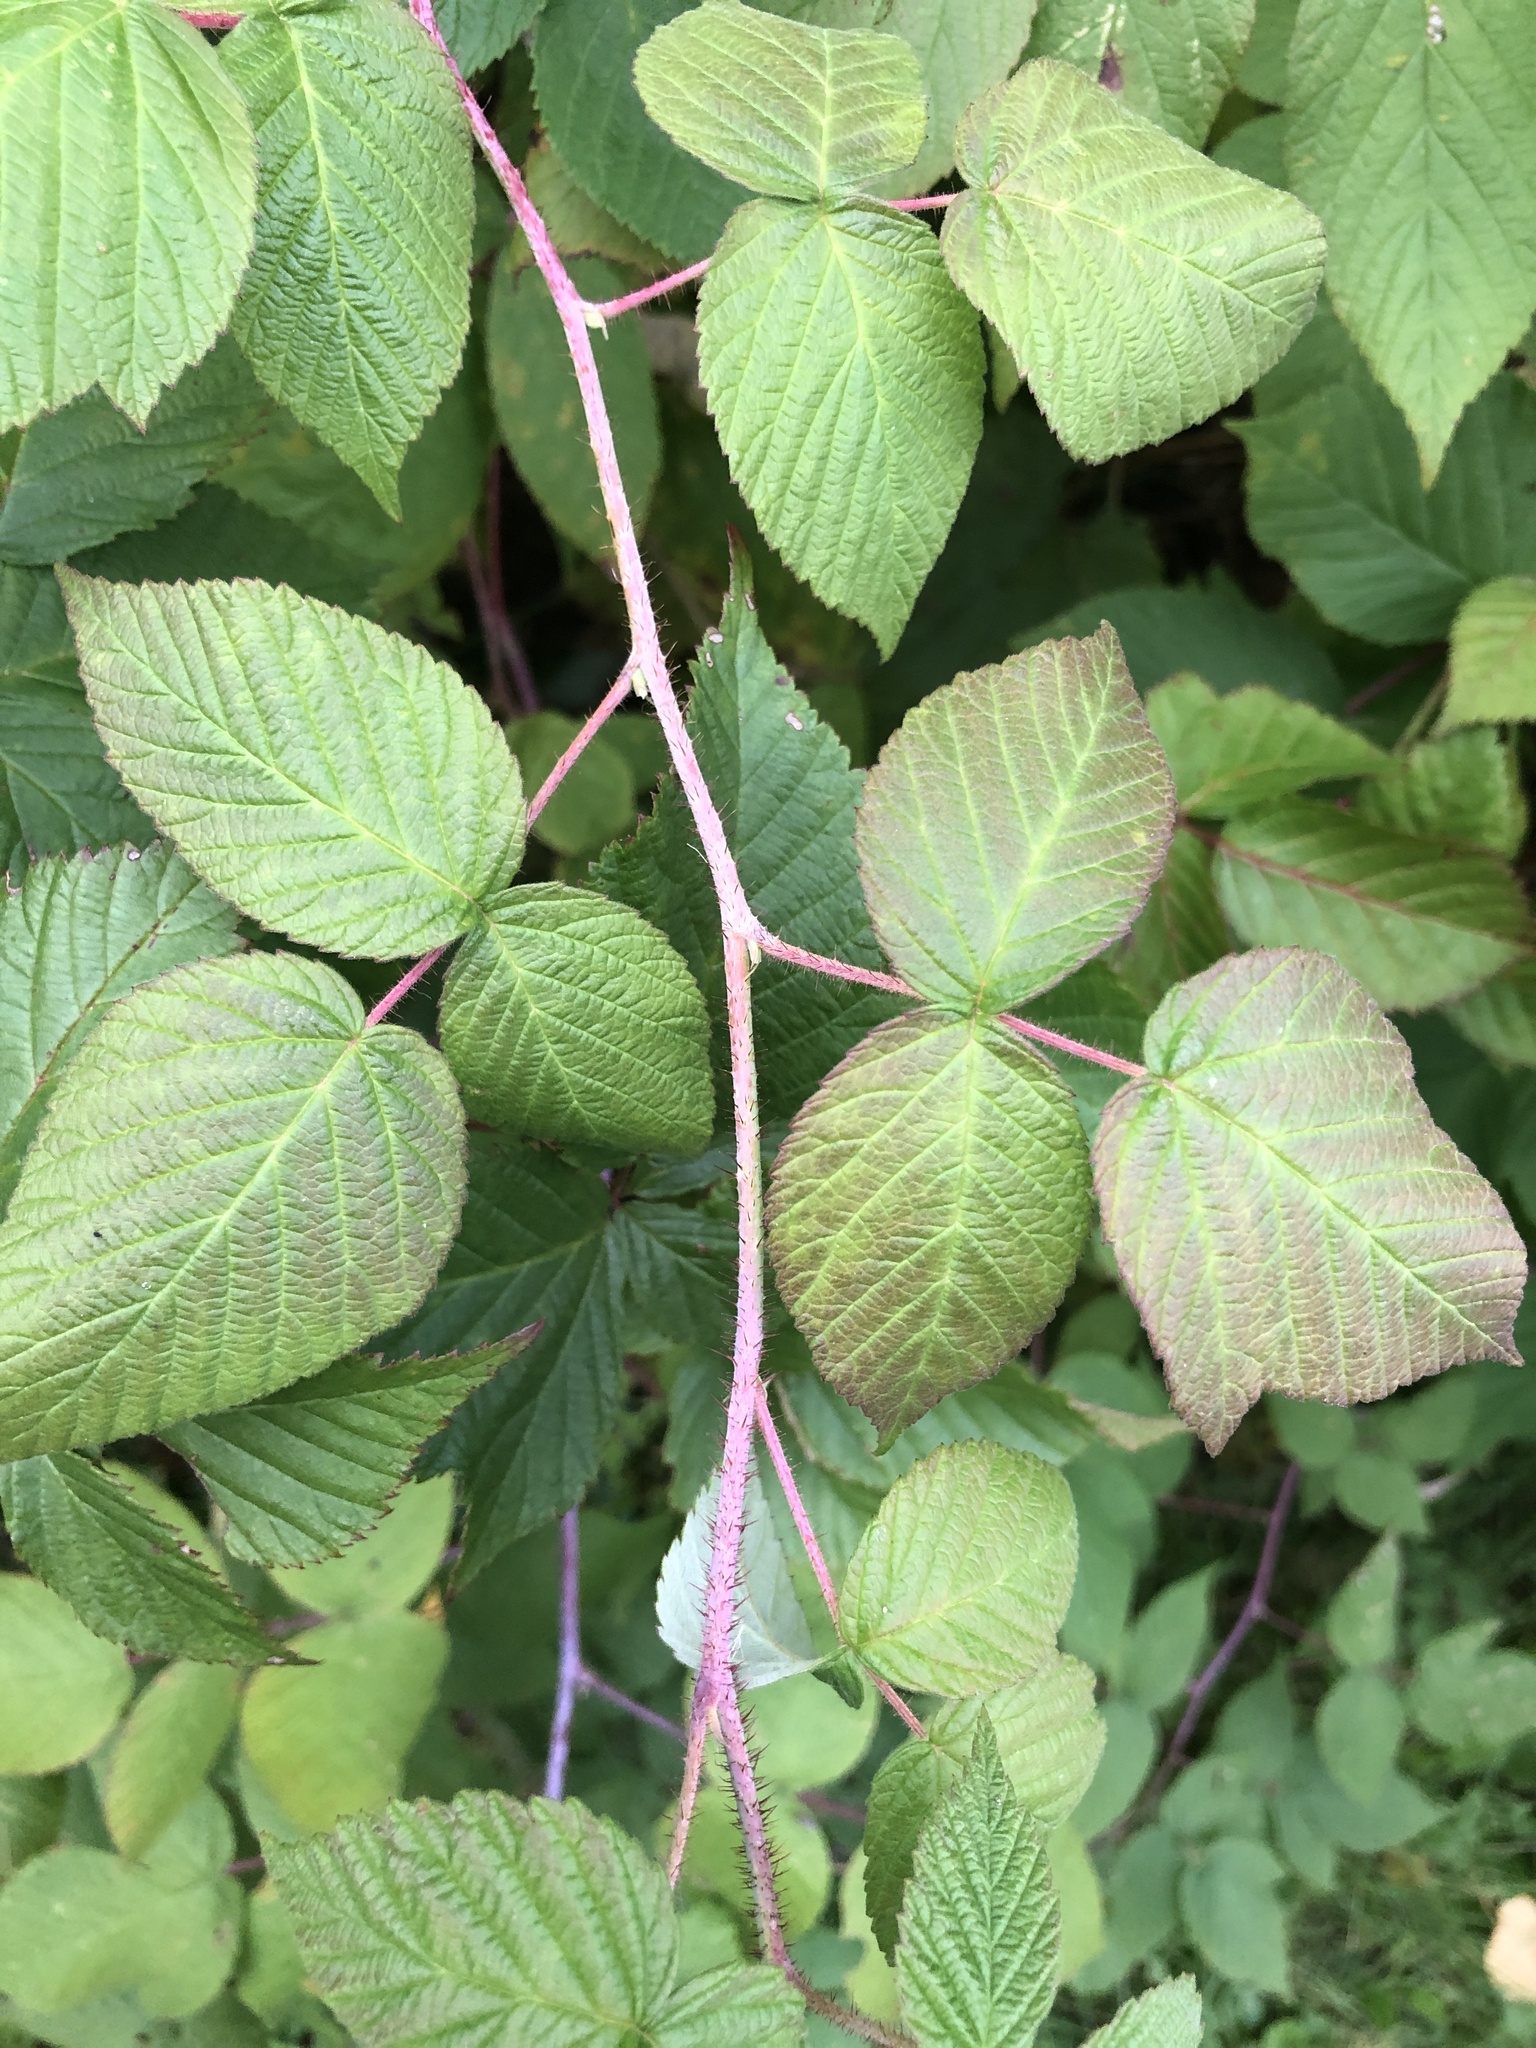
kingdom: Plantae
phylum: Tracheophyta
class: Magnoliopsida
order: Rosales
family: Rosaceae
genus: Rubus
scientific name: Rubus idaeus
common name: Raspberry
